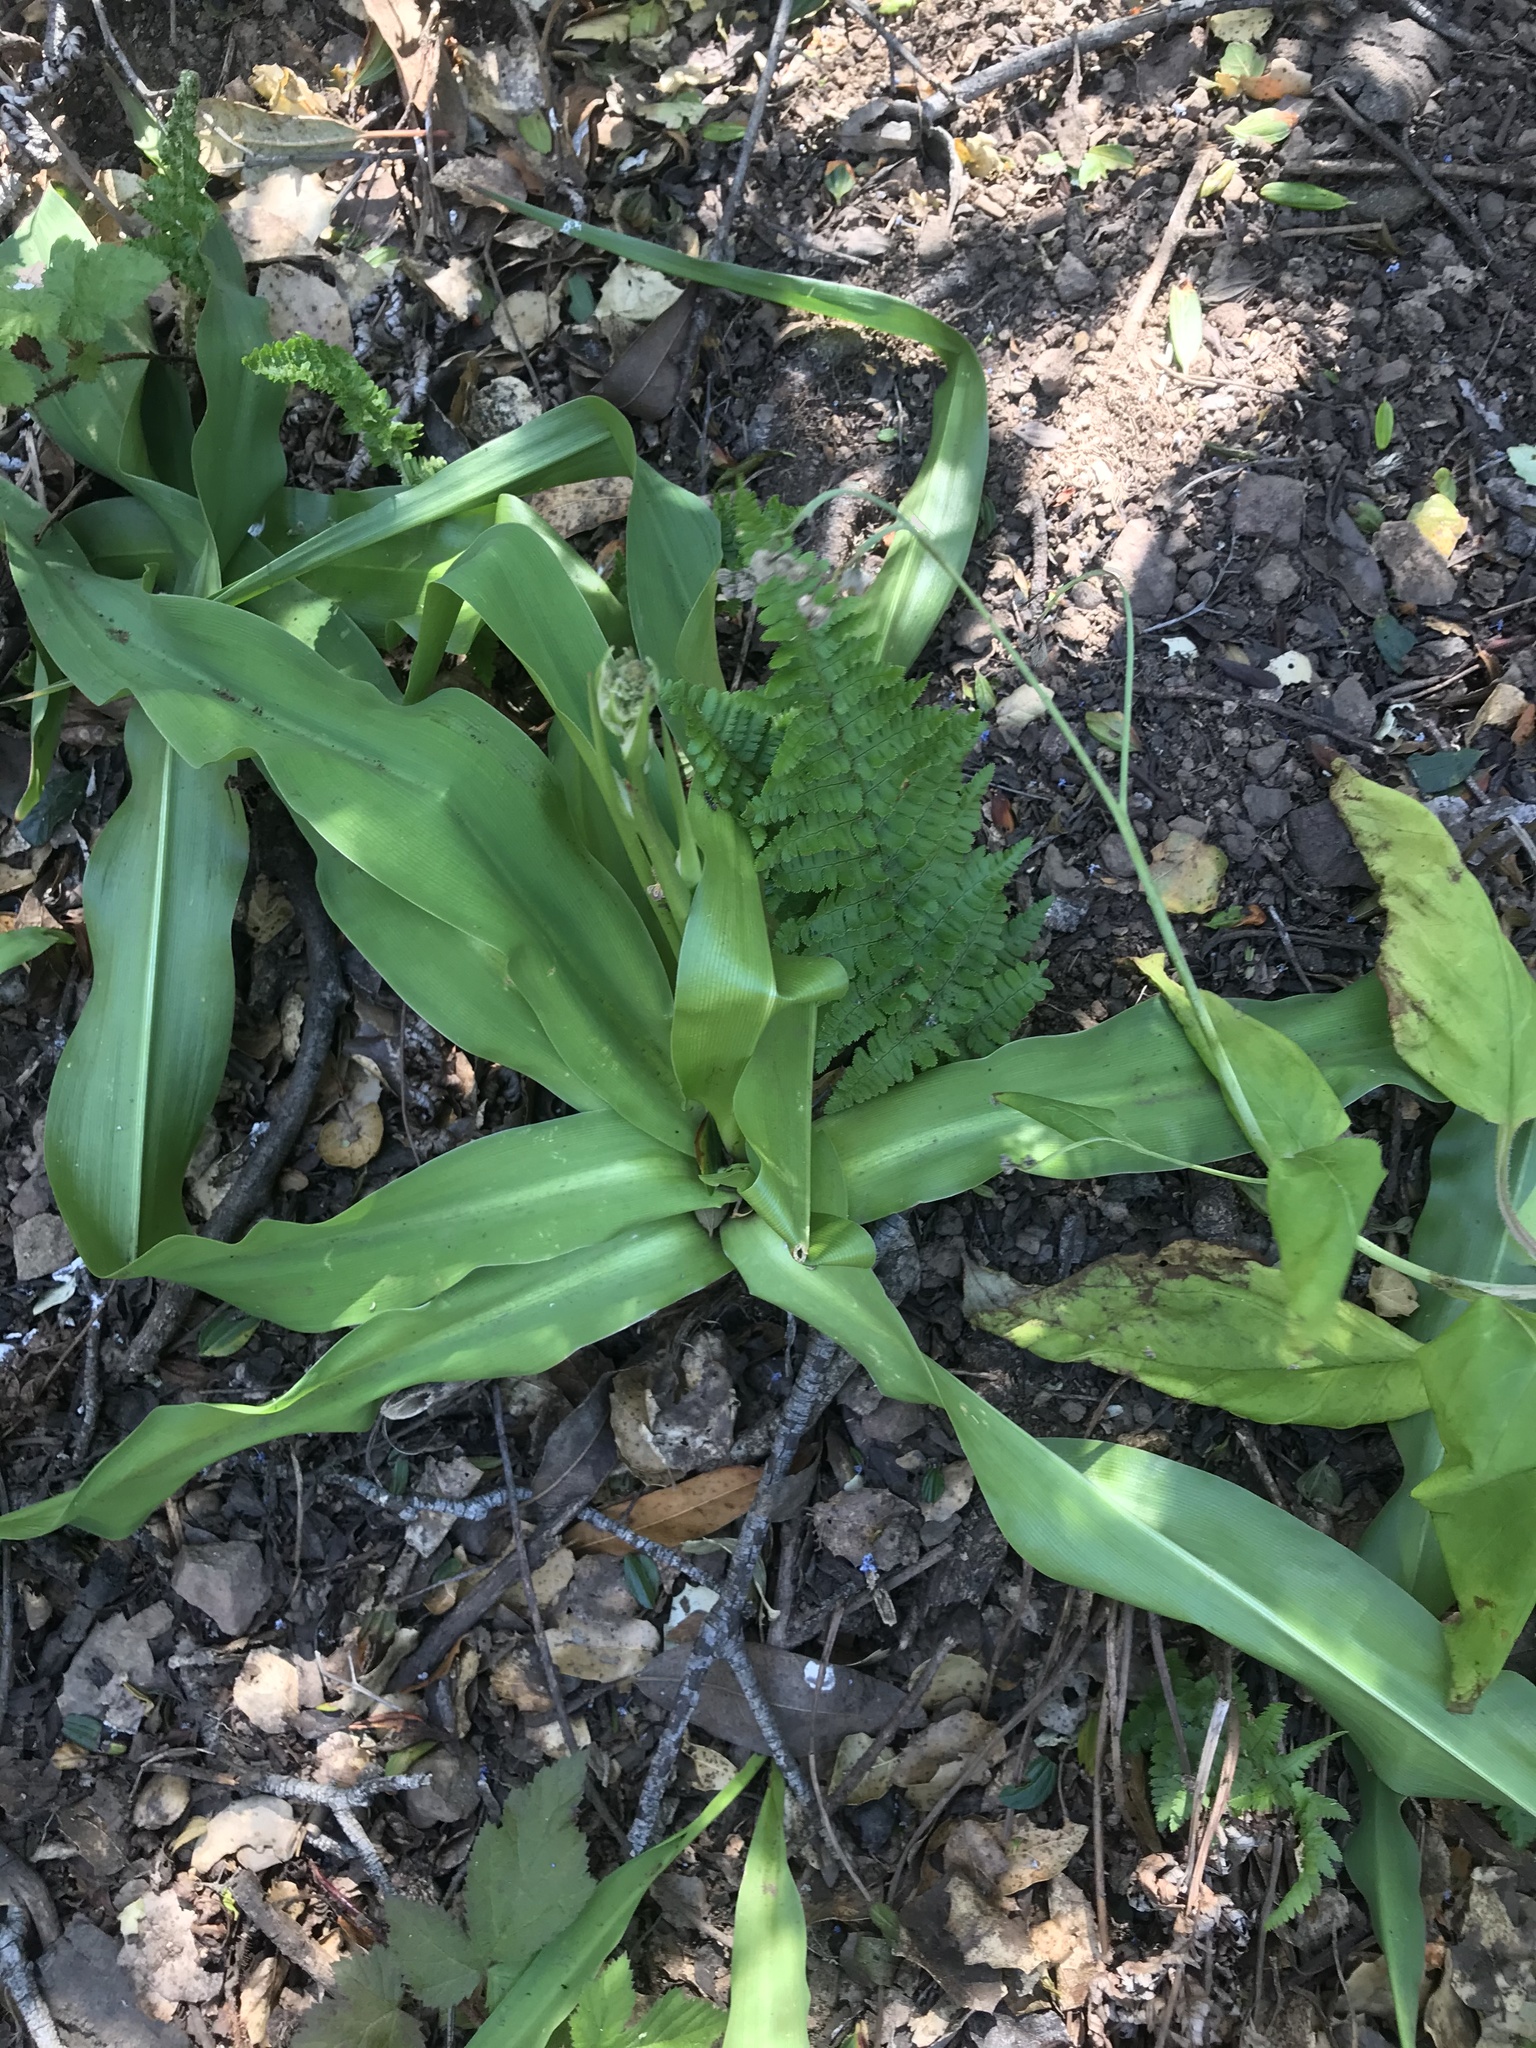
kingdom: Plantae
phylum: Tracheophyta
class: Liliopsida
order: Asparagales
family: Asparagaceae
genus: Chlorogalum
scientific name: Chlorogalum pomeridianum
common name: Amole
